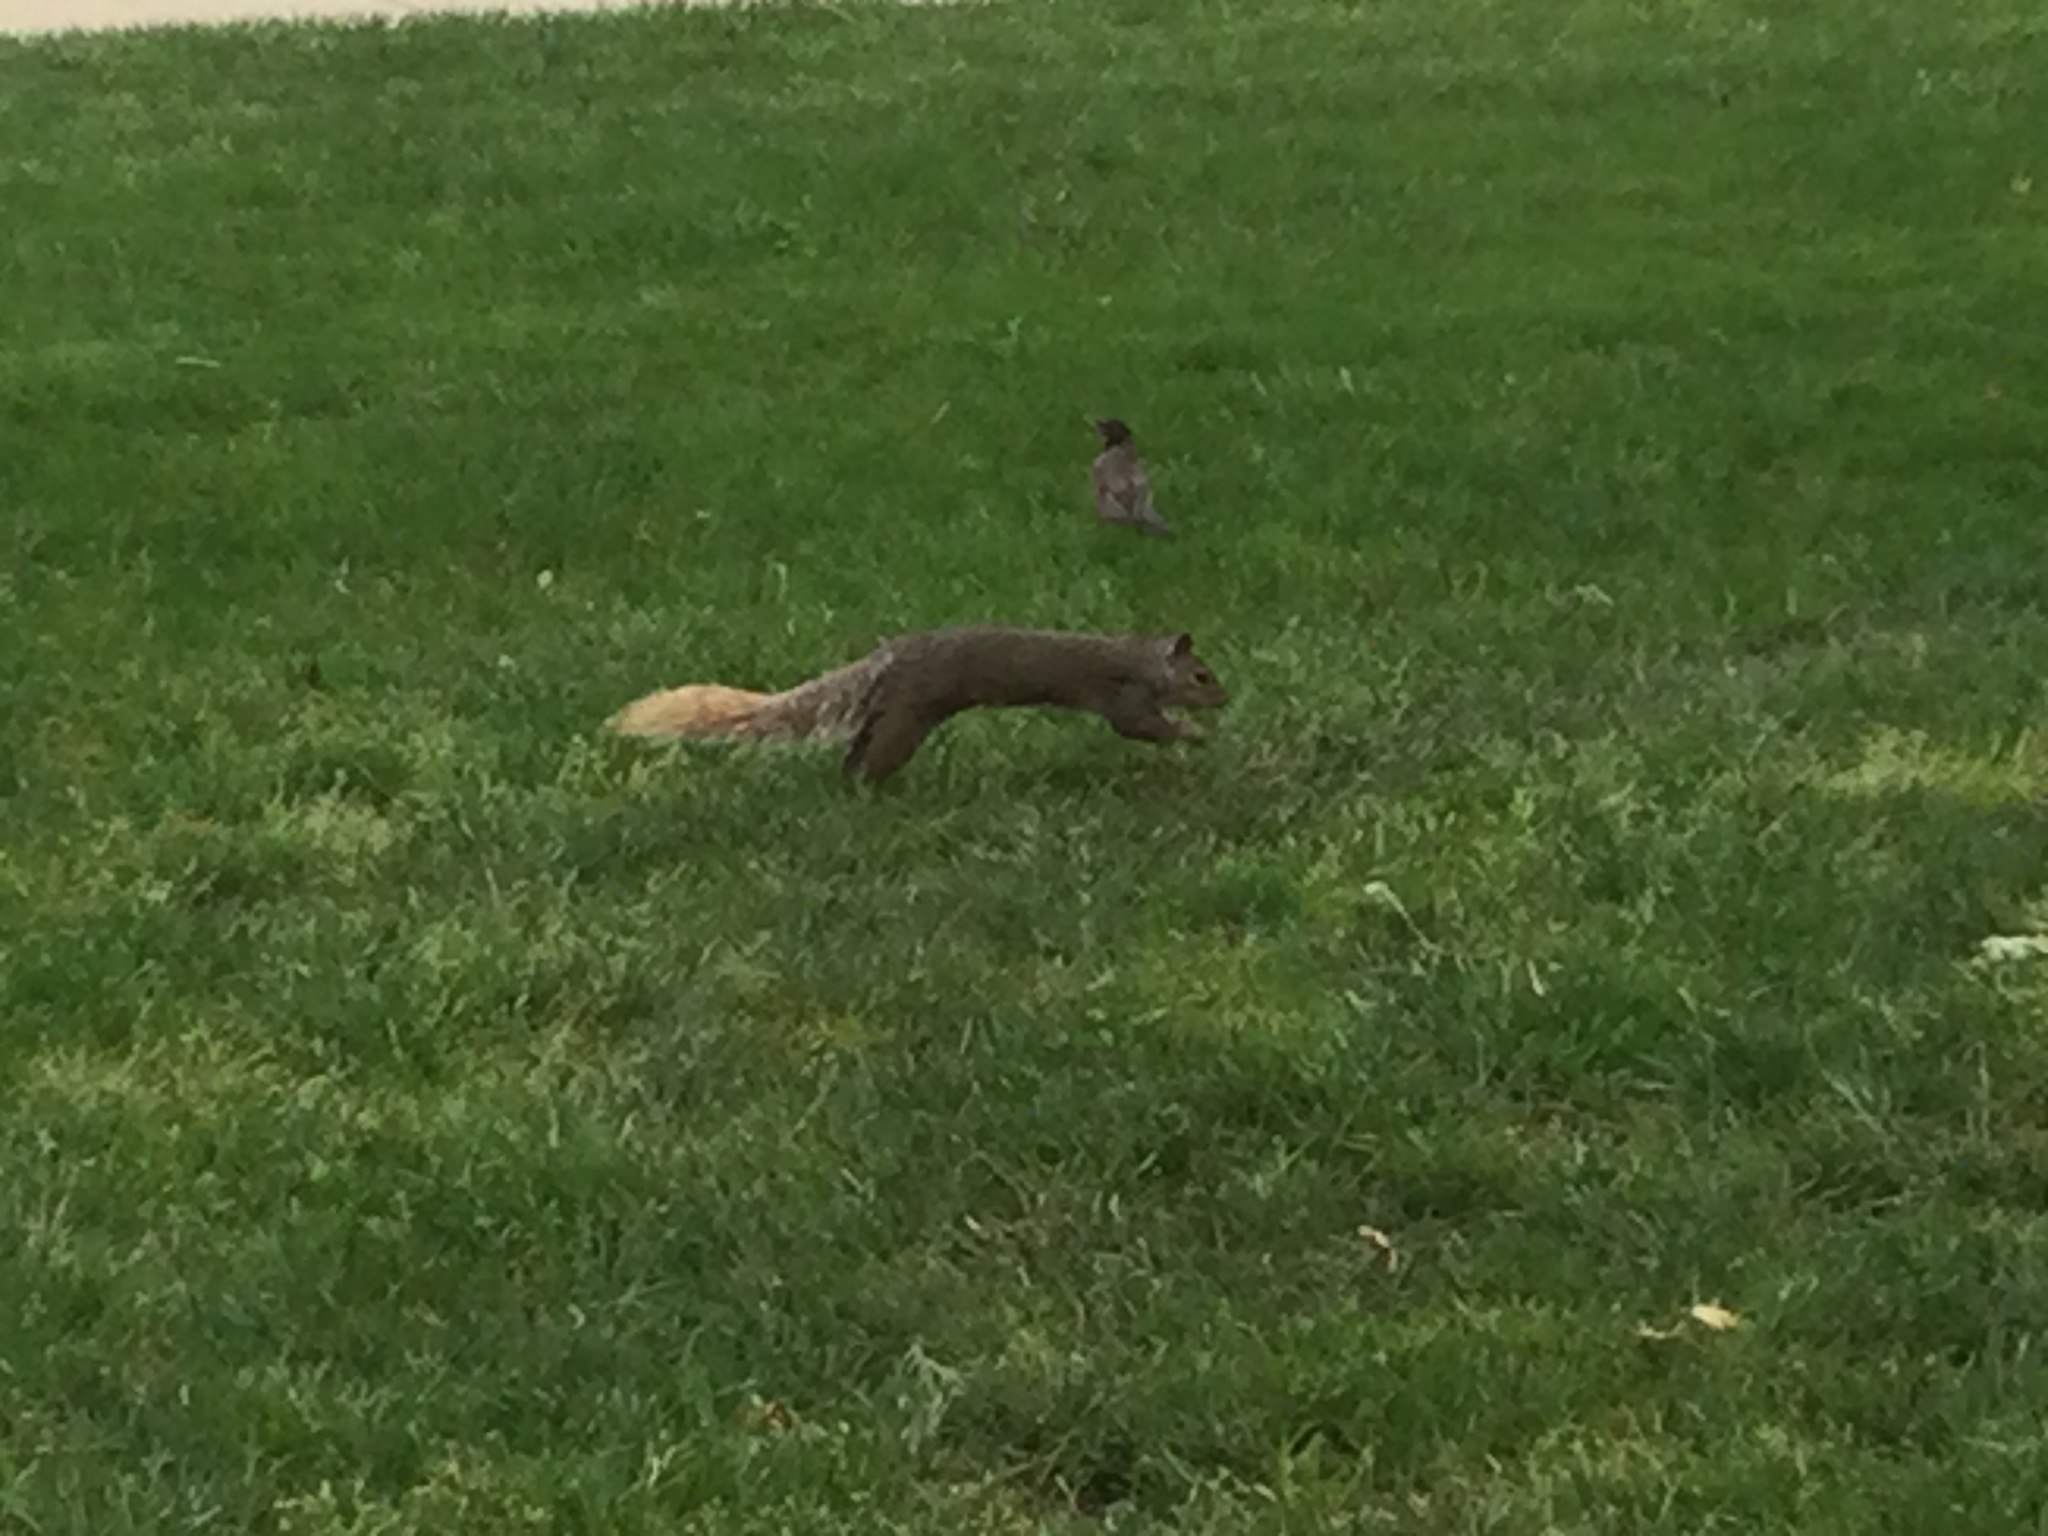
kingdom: Animalia
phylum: Chordata
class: Mammalia
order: Rodentia
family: Sciuridae
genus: Sciurus
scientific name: Sciurus carolinensis
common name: Eastern gray squirrel
